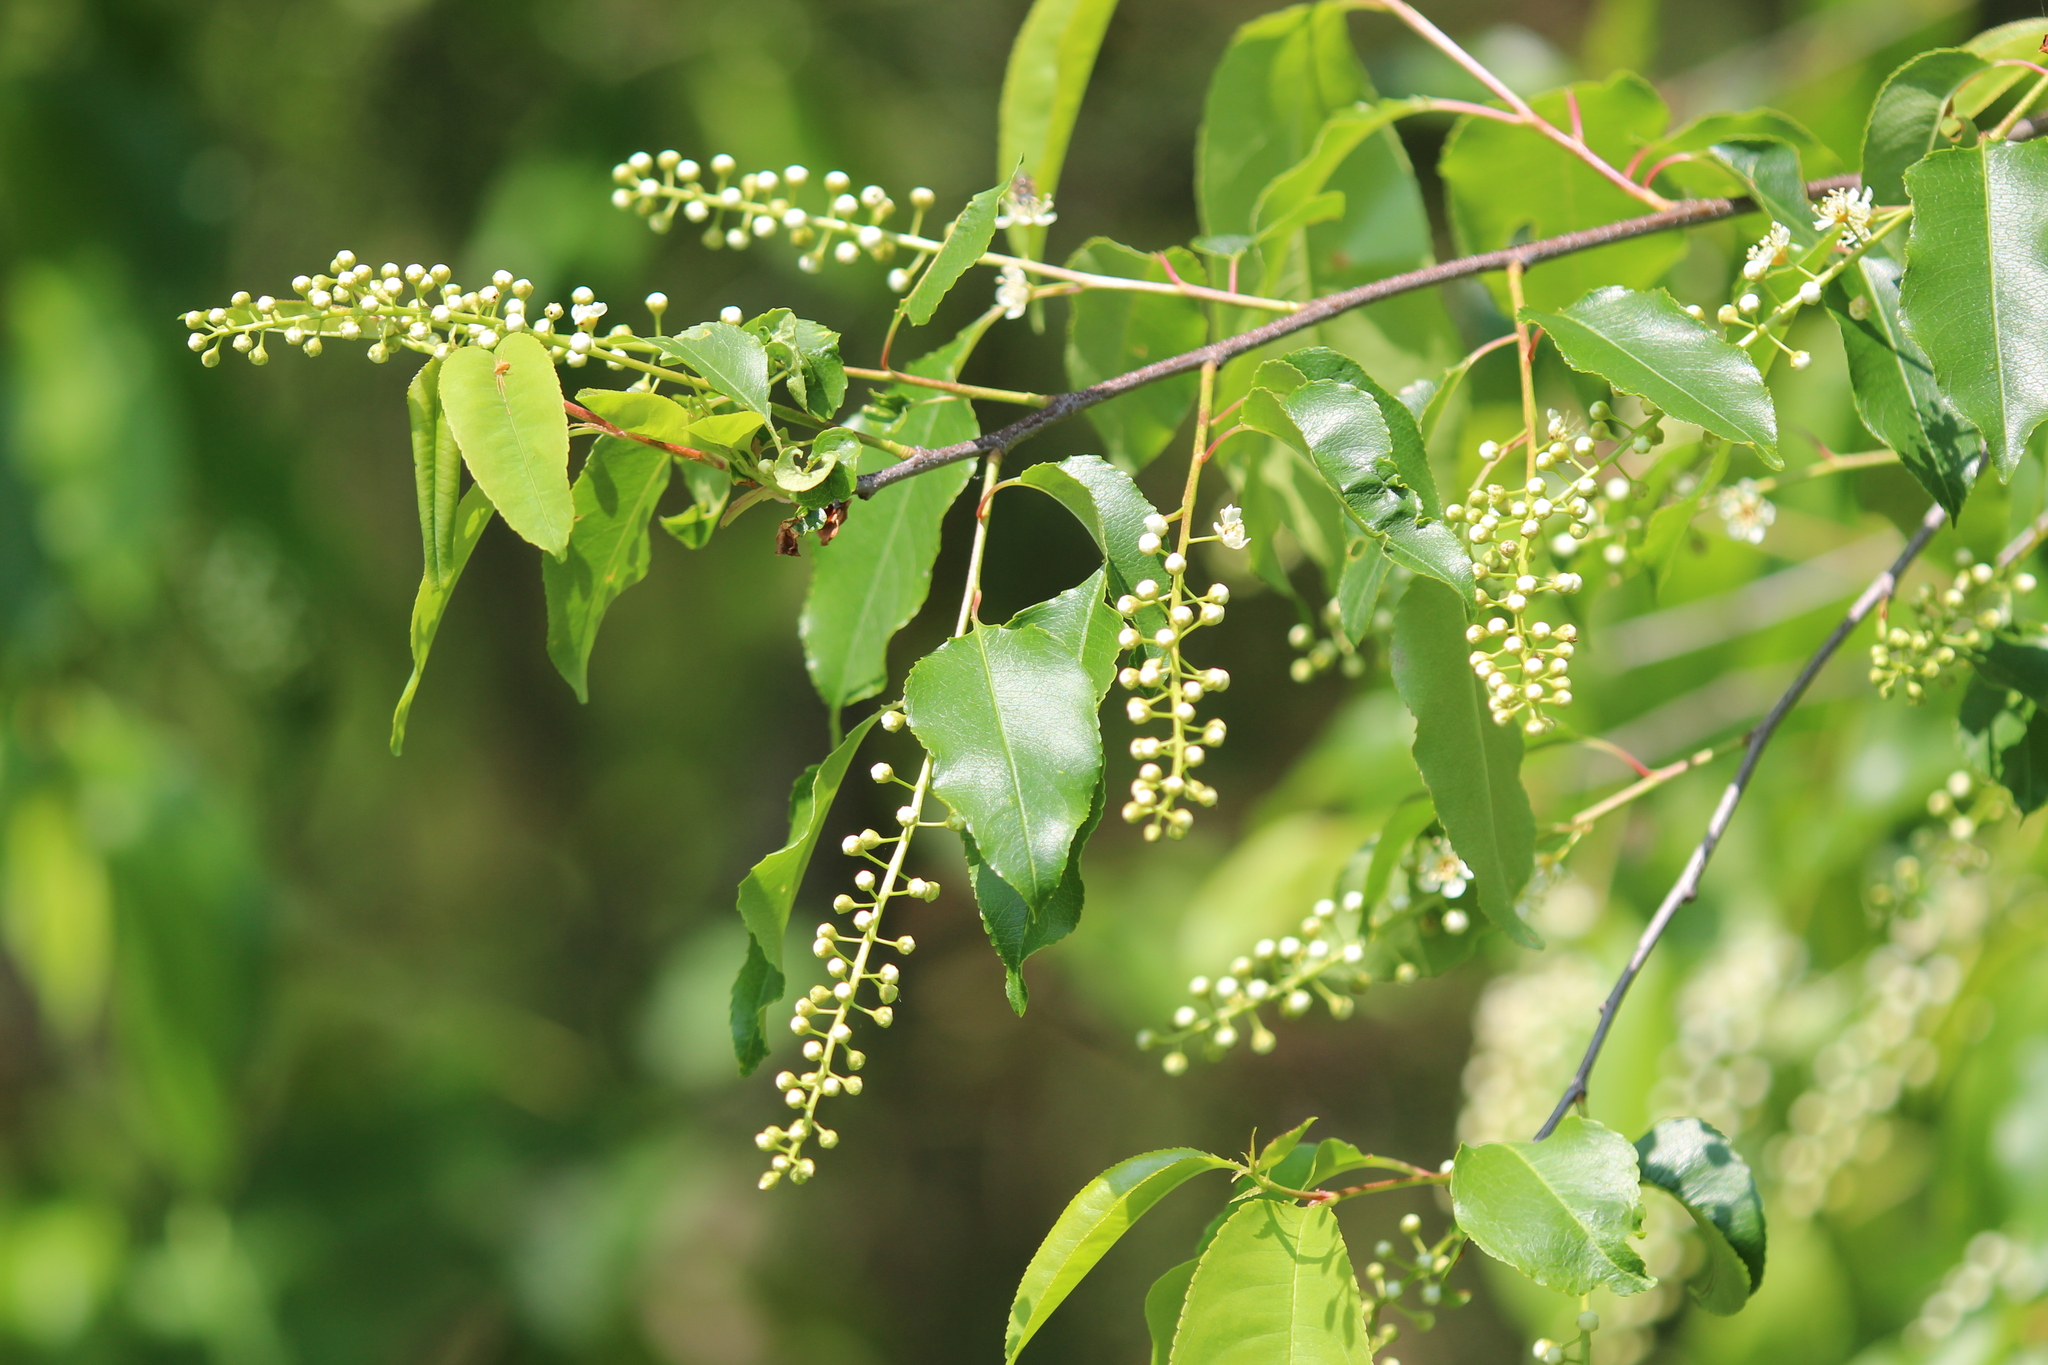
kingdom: Plantae
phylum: Tracheophyta
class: Magnoliopsida
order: Rosales
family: Rosaceae
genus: Prunus
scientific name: Prunus serotina
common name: Black cherry
